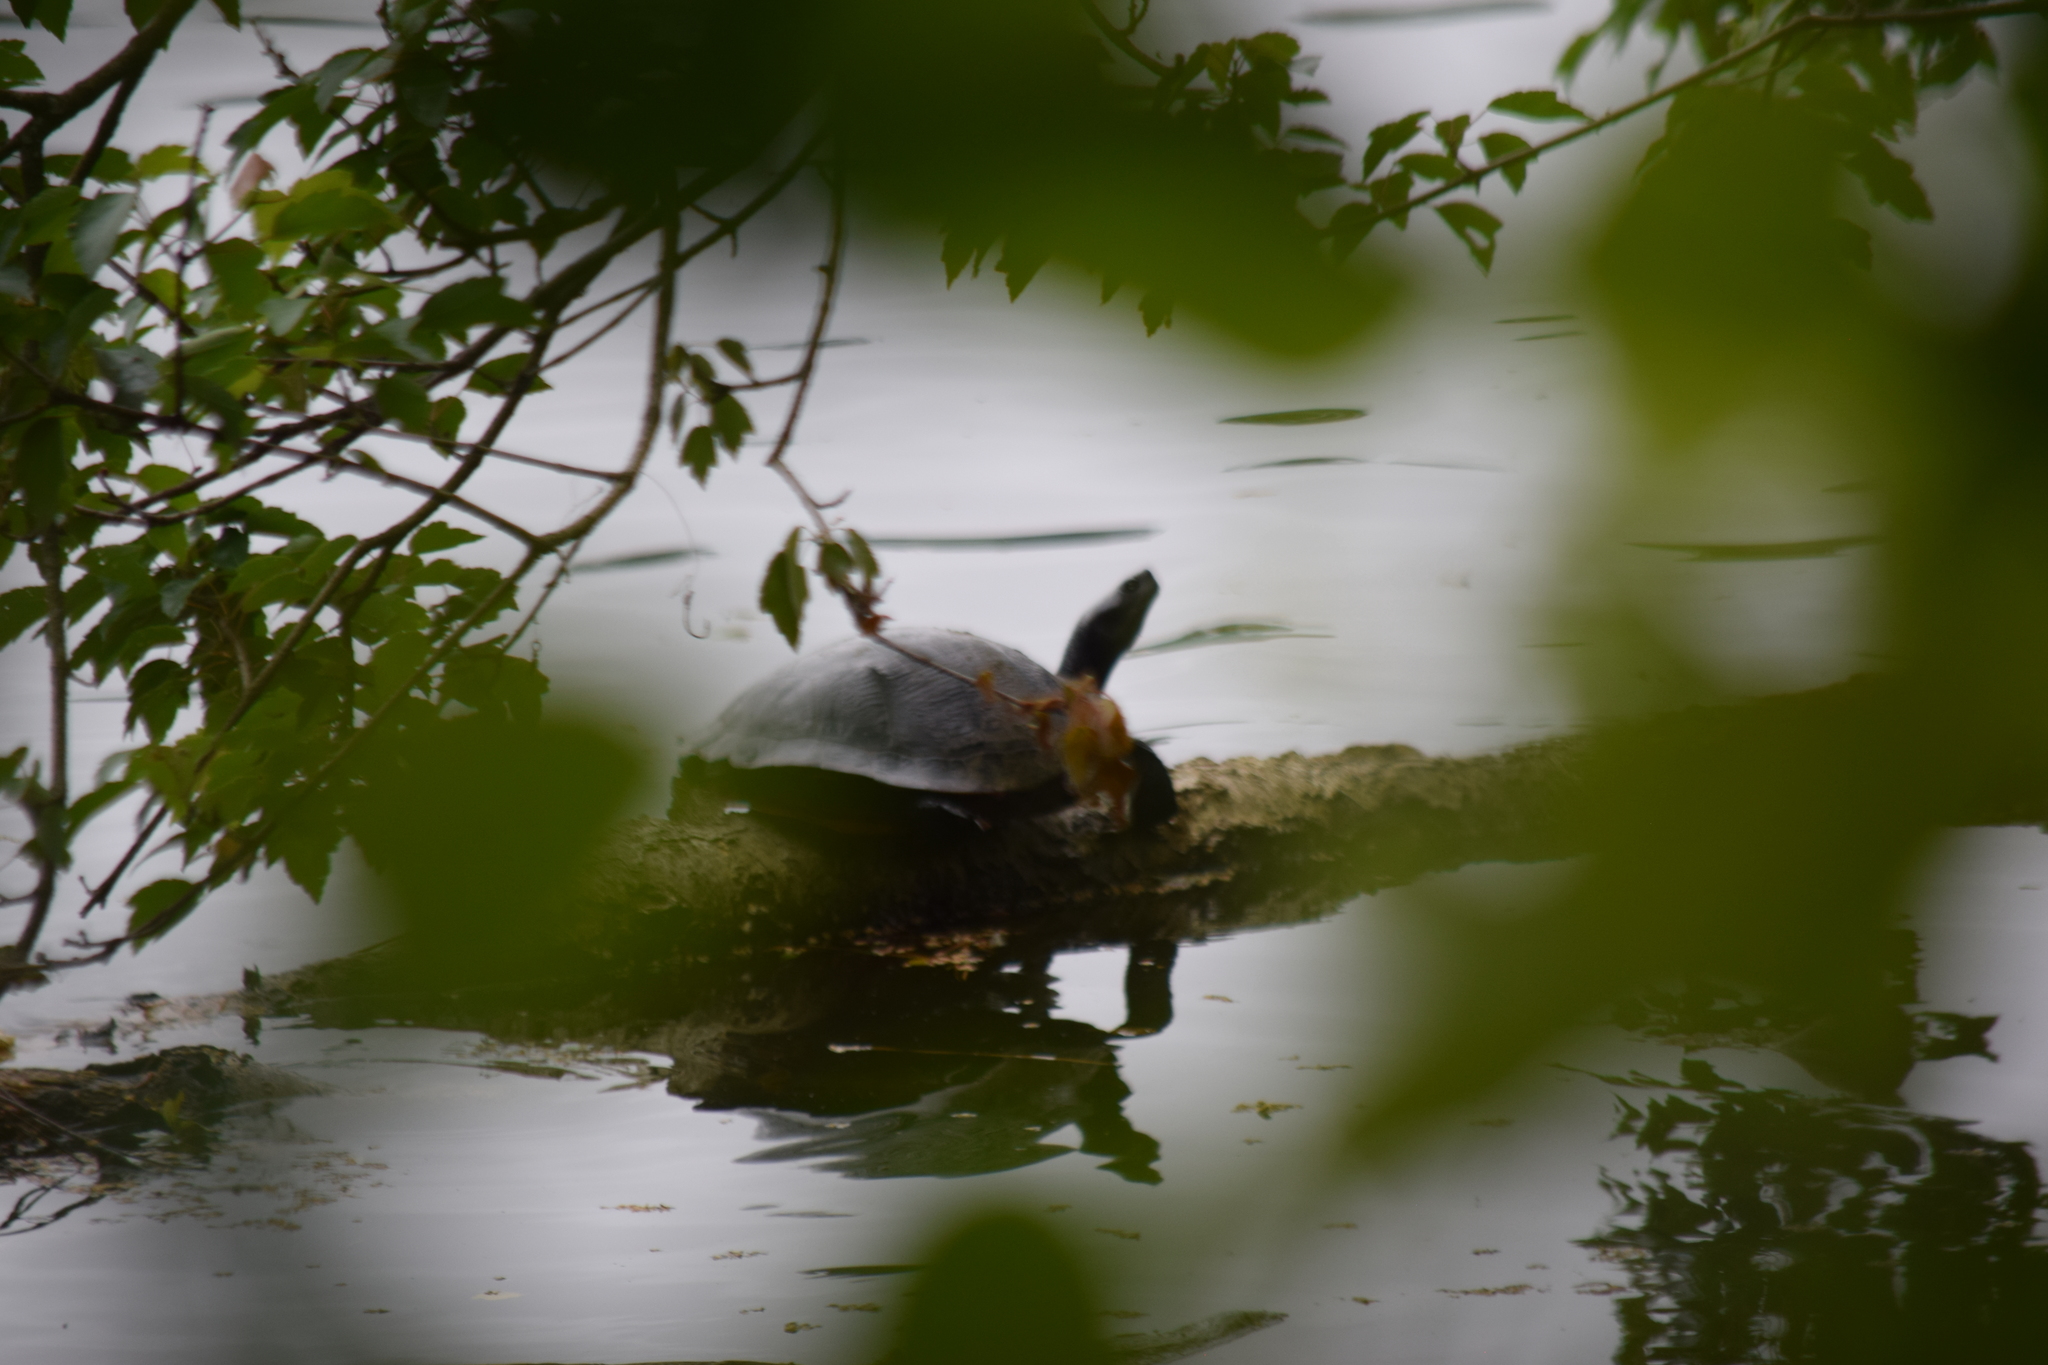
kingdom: Animalia
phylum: Chordata
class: Testudines
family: Emydidae
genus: Pseudemys
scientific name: Pseudemys rubriventris
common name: American red-bellied turtle
